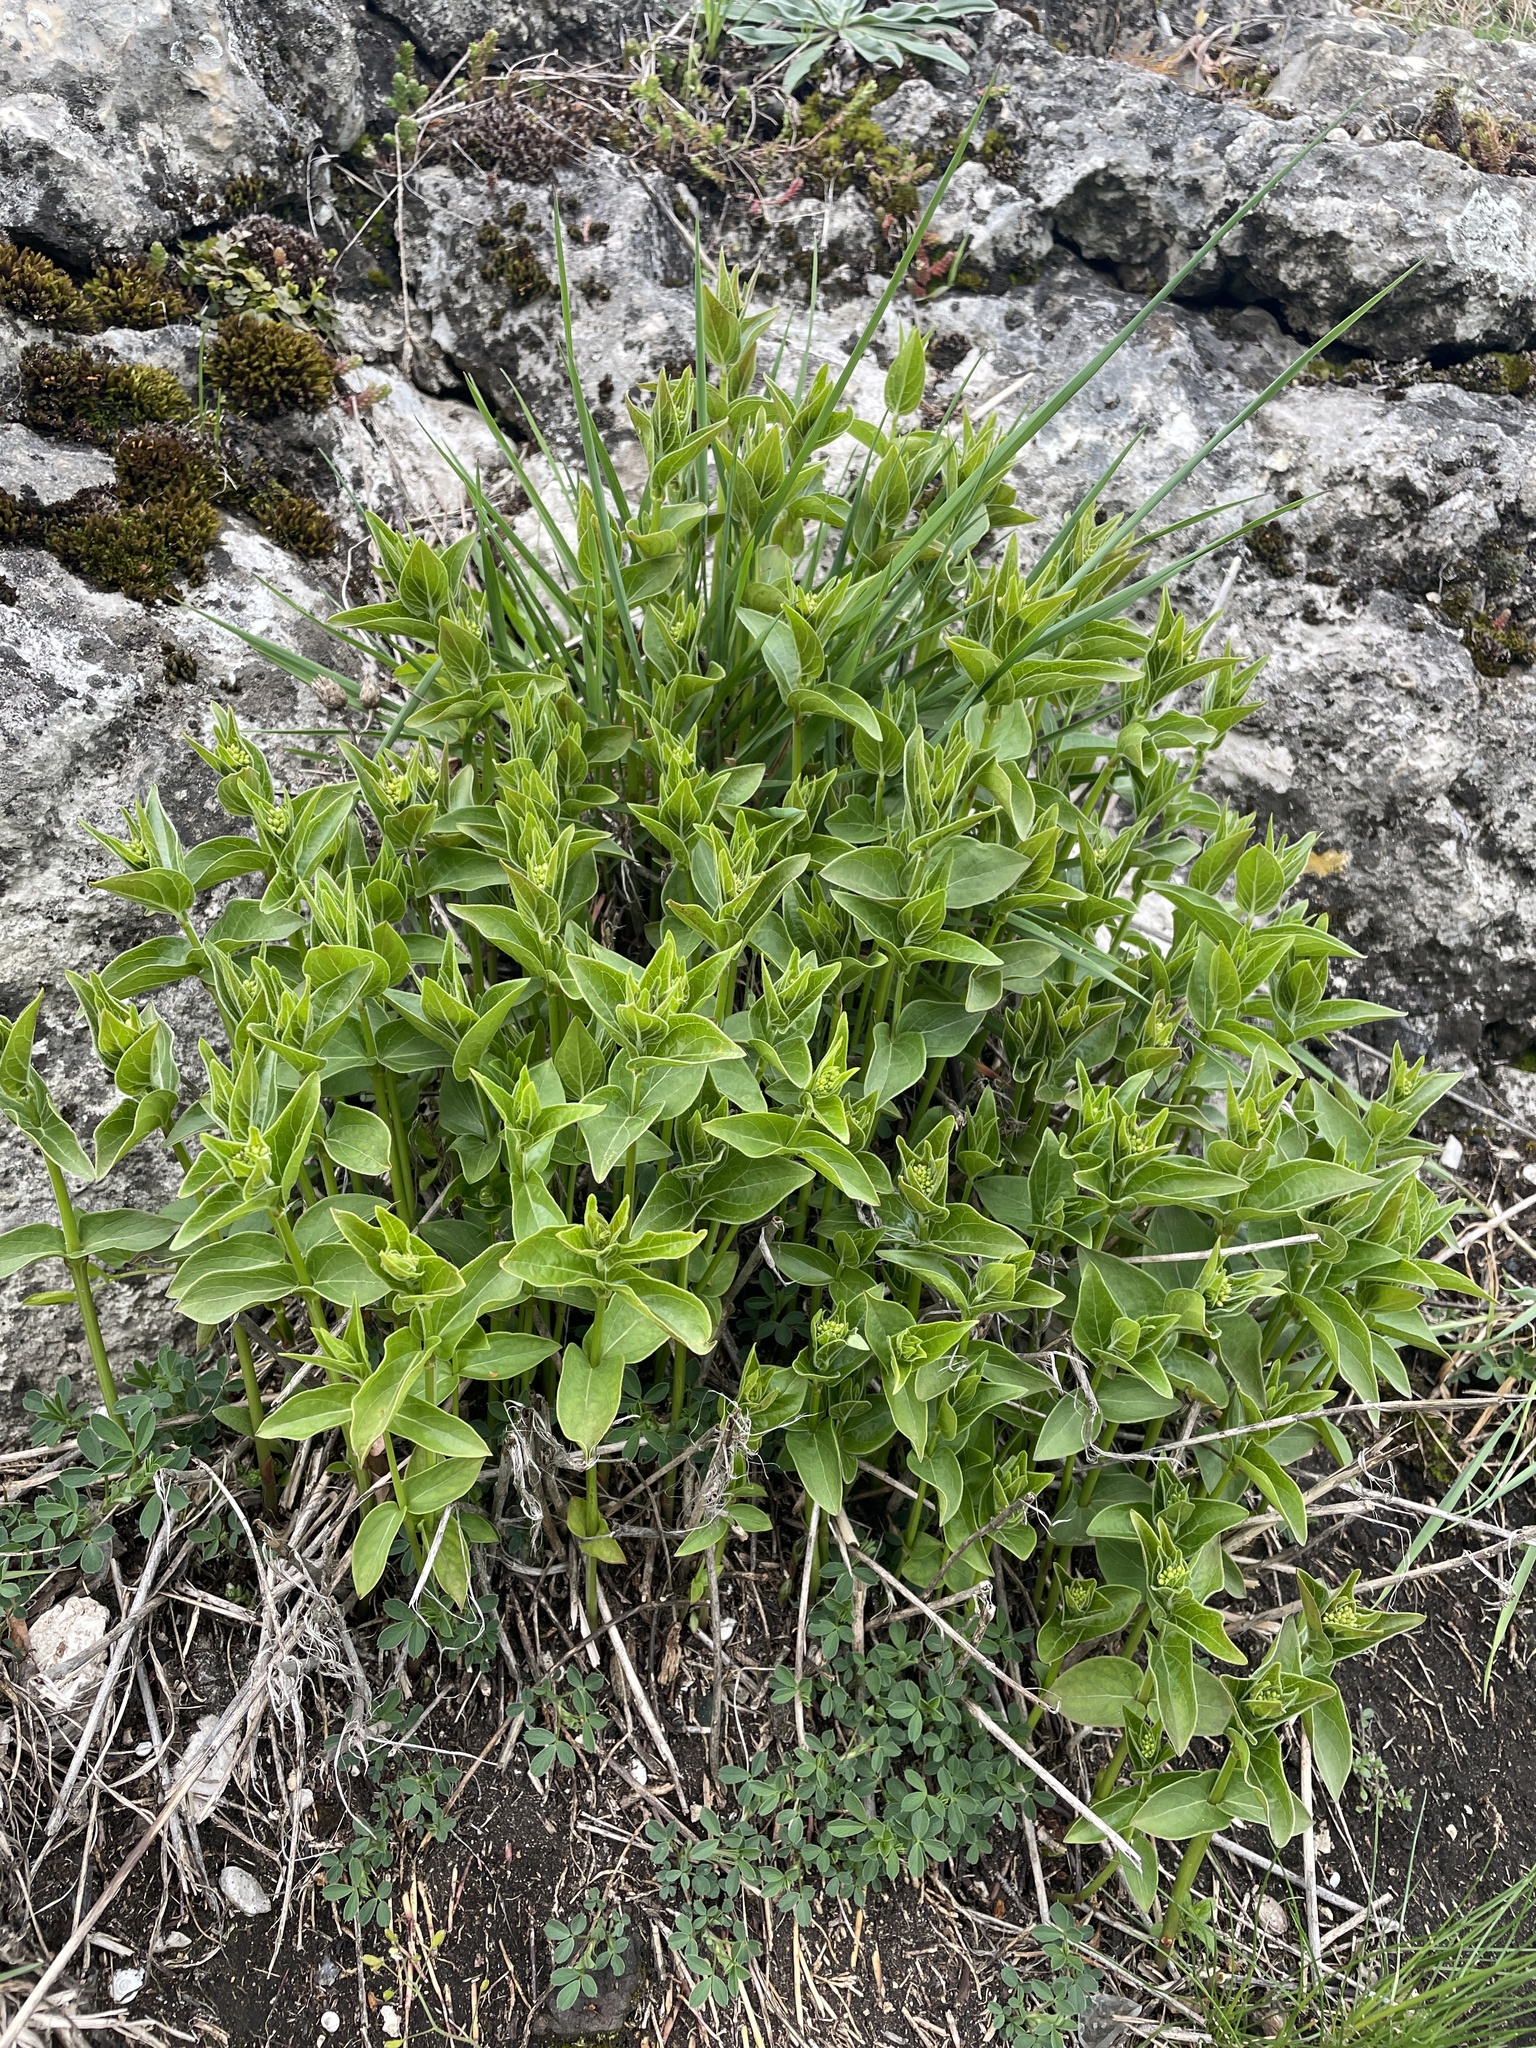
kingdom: Plantae
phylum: Tracheophyta
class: Magnoliopsida
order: Gentianales
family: Apocynaceae
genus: Vincetoxicum
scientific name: Vincetoxicum hirundinaria
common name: White swallowwort
